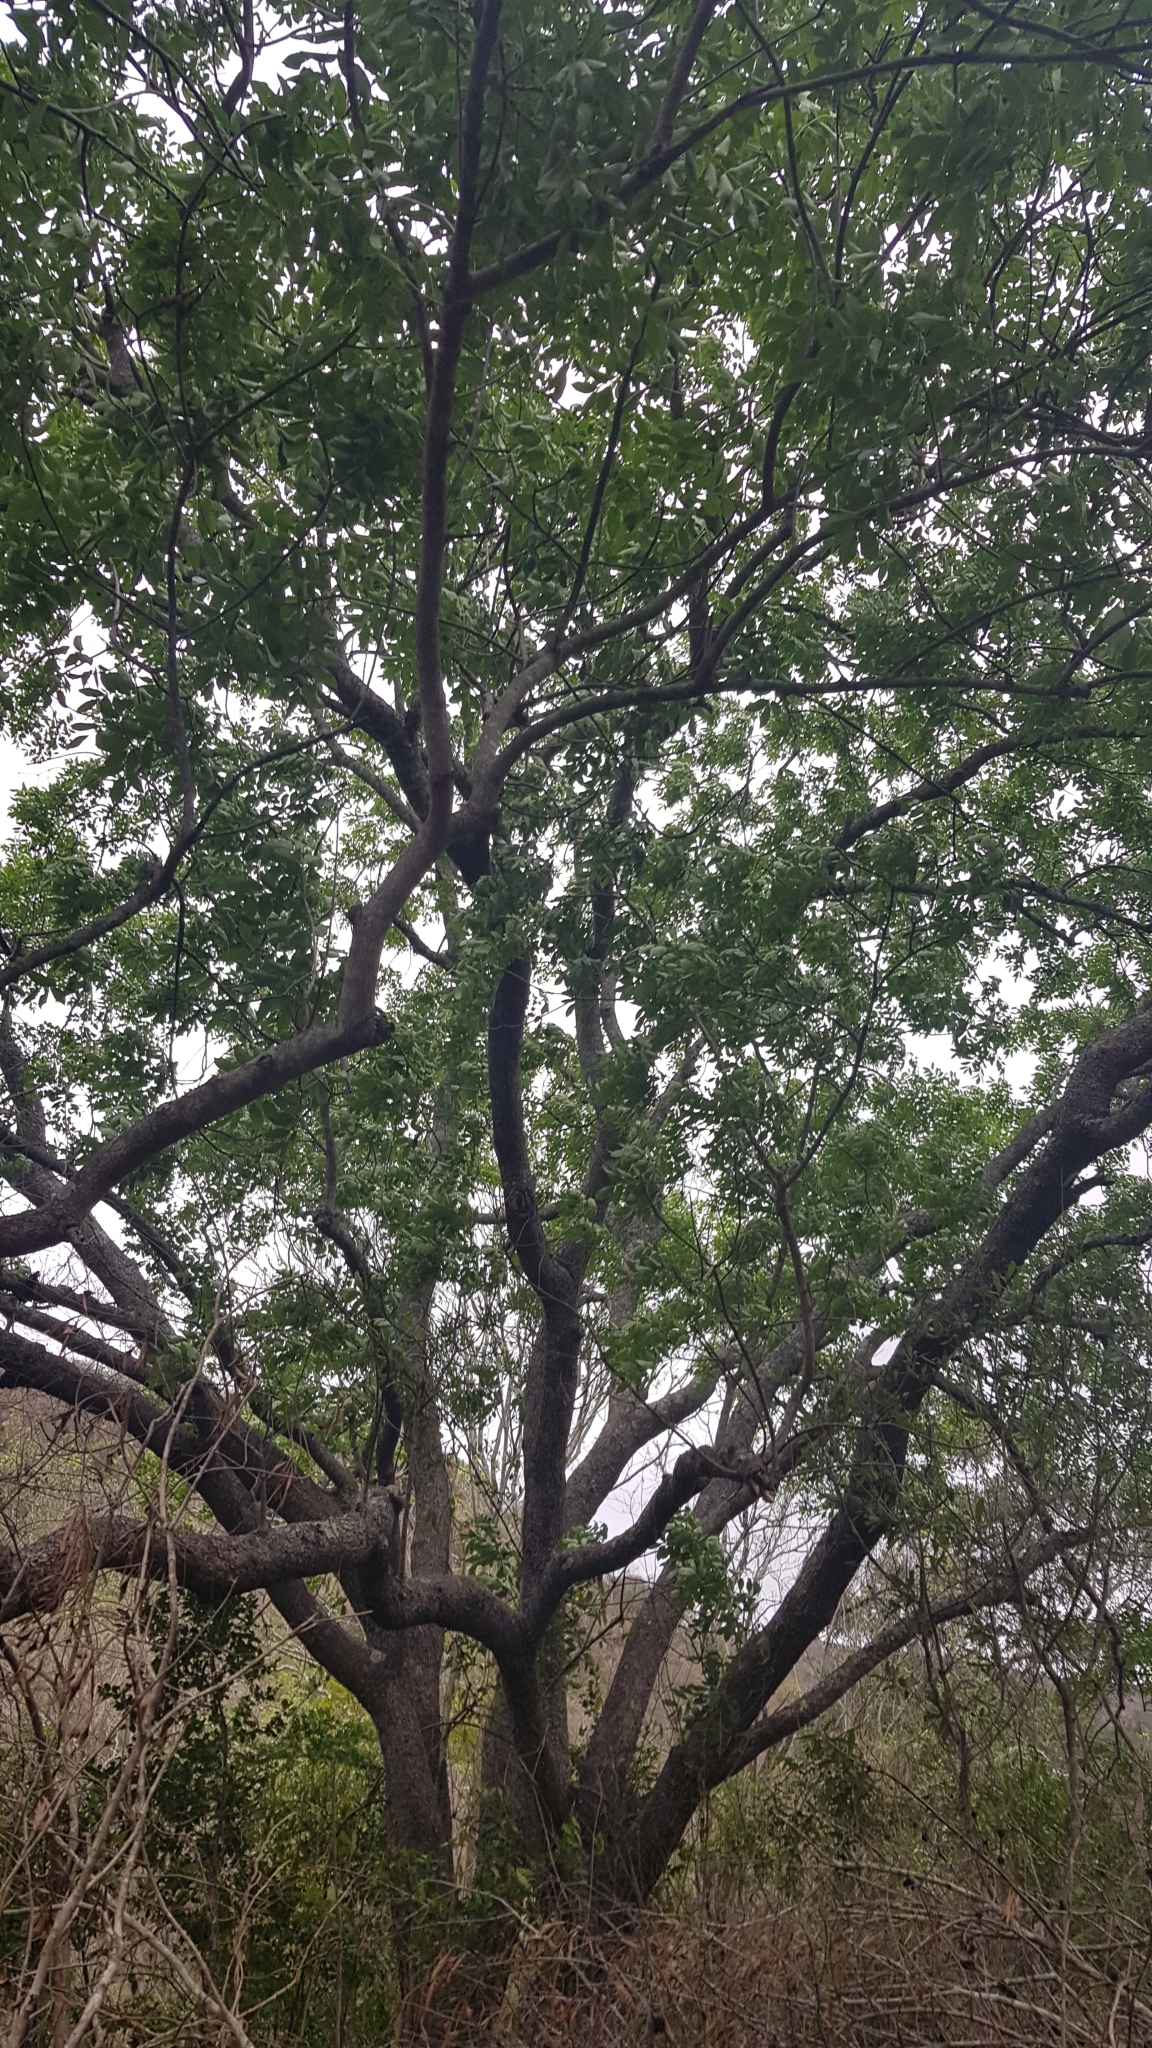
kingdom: Plantae
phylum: Tracheophyta
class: Magnoliopsida
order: Sapindales
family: Meliaceae
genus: Ekebergia
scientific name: Ekebergia capensis
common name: Cape-ash
